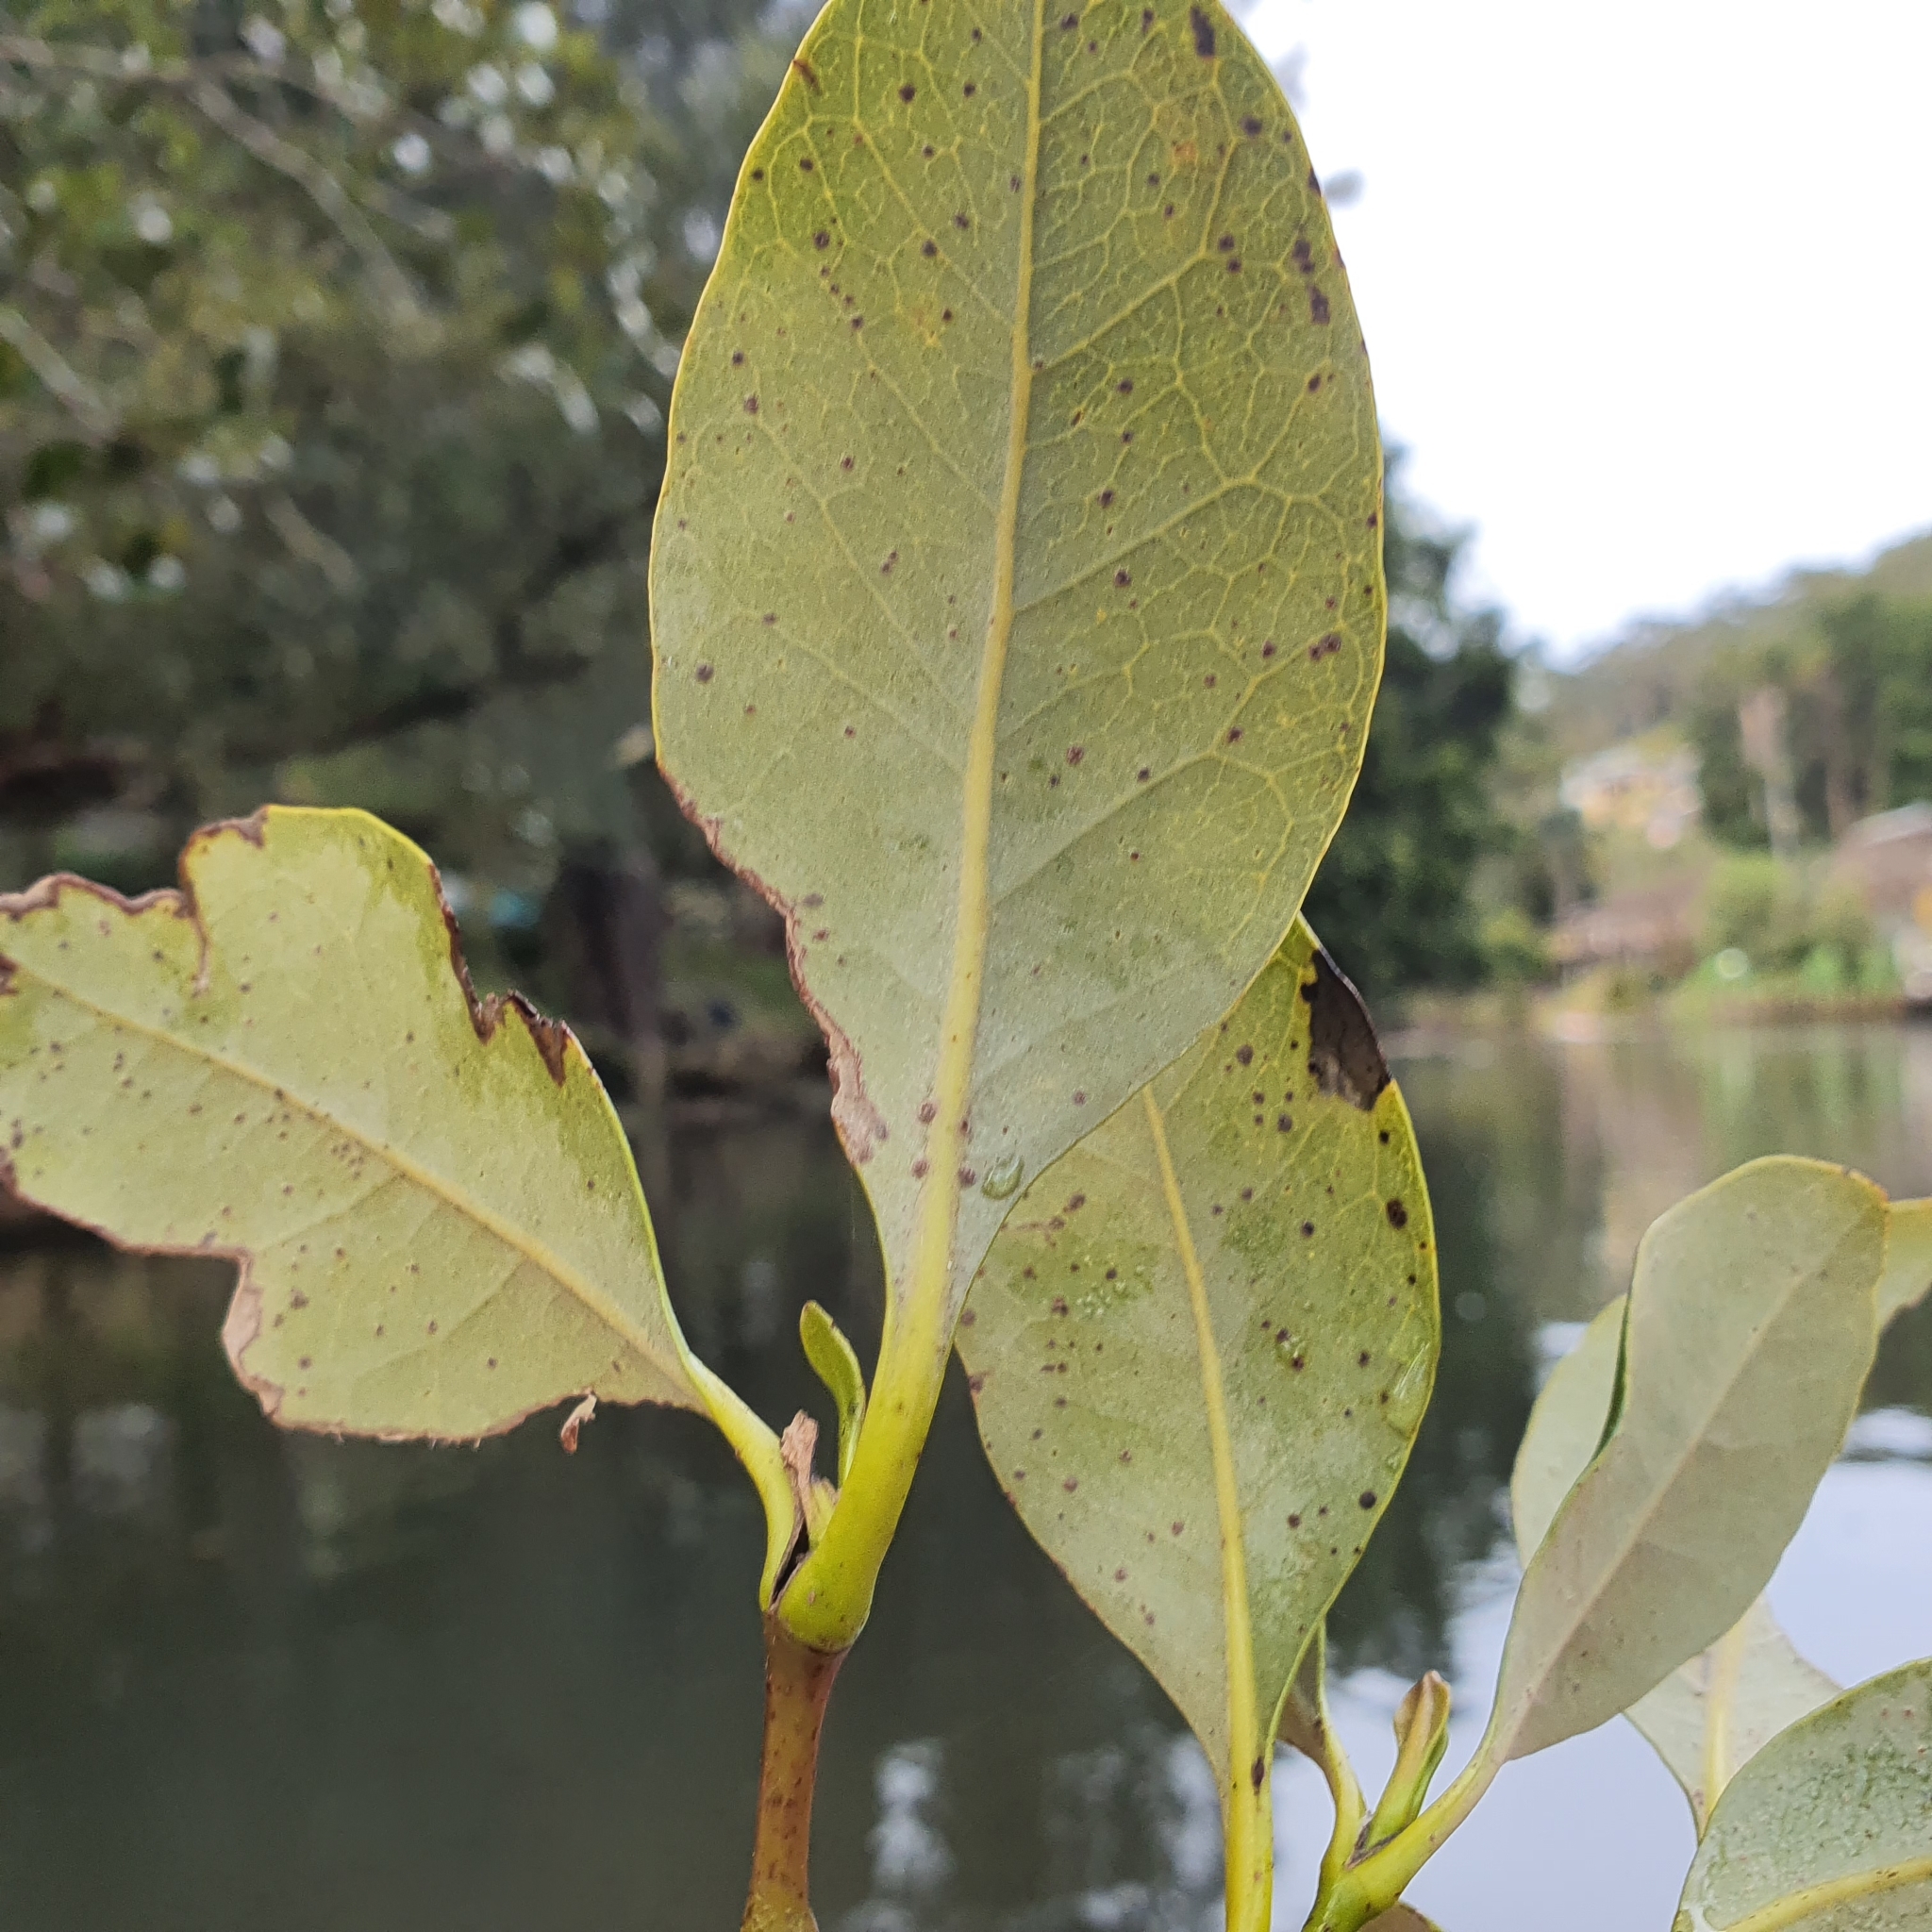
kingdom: Plantae
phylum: Tracheophyta
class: Magnoliopsida
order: Lamiales
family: Acanthaceae
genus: Avicennia
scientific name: Avicennia marina
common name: Gray mangrove
